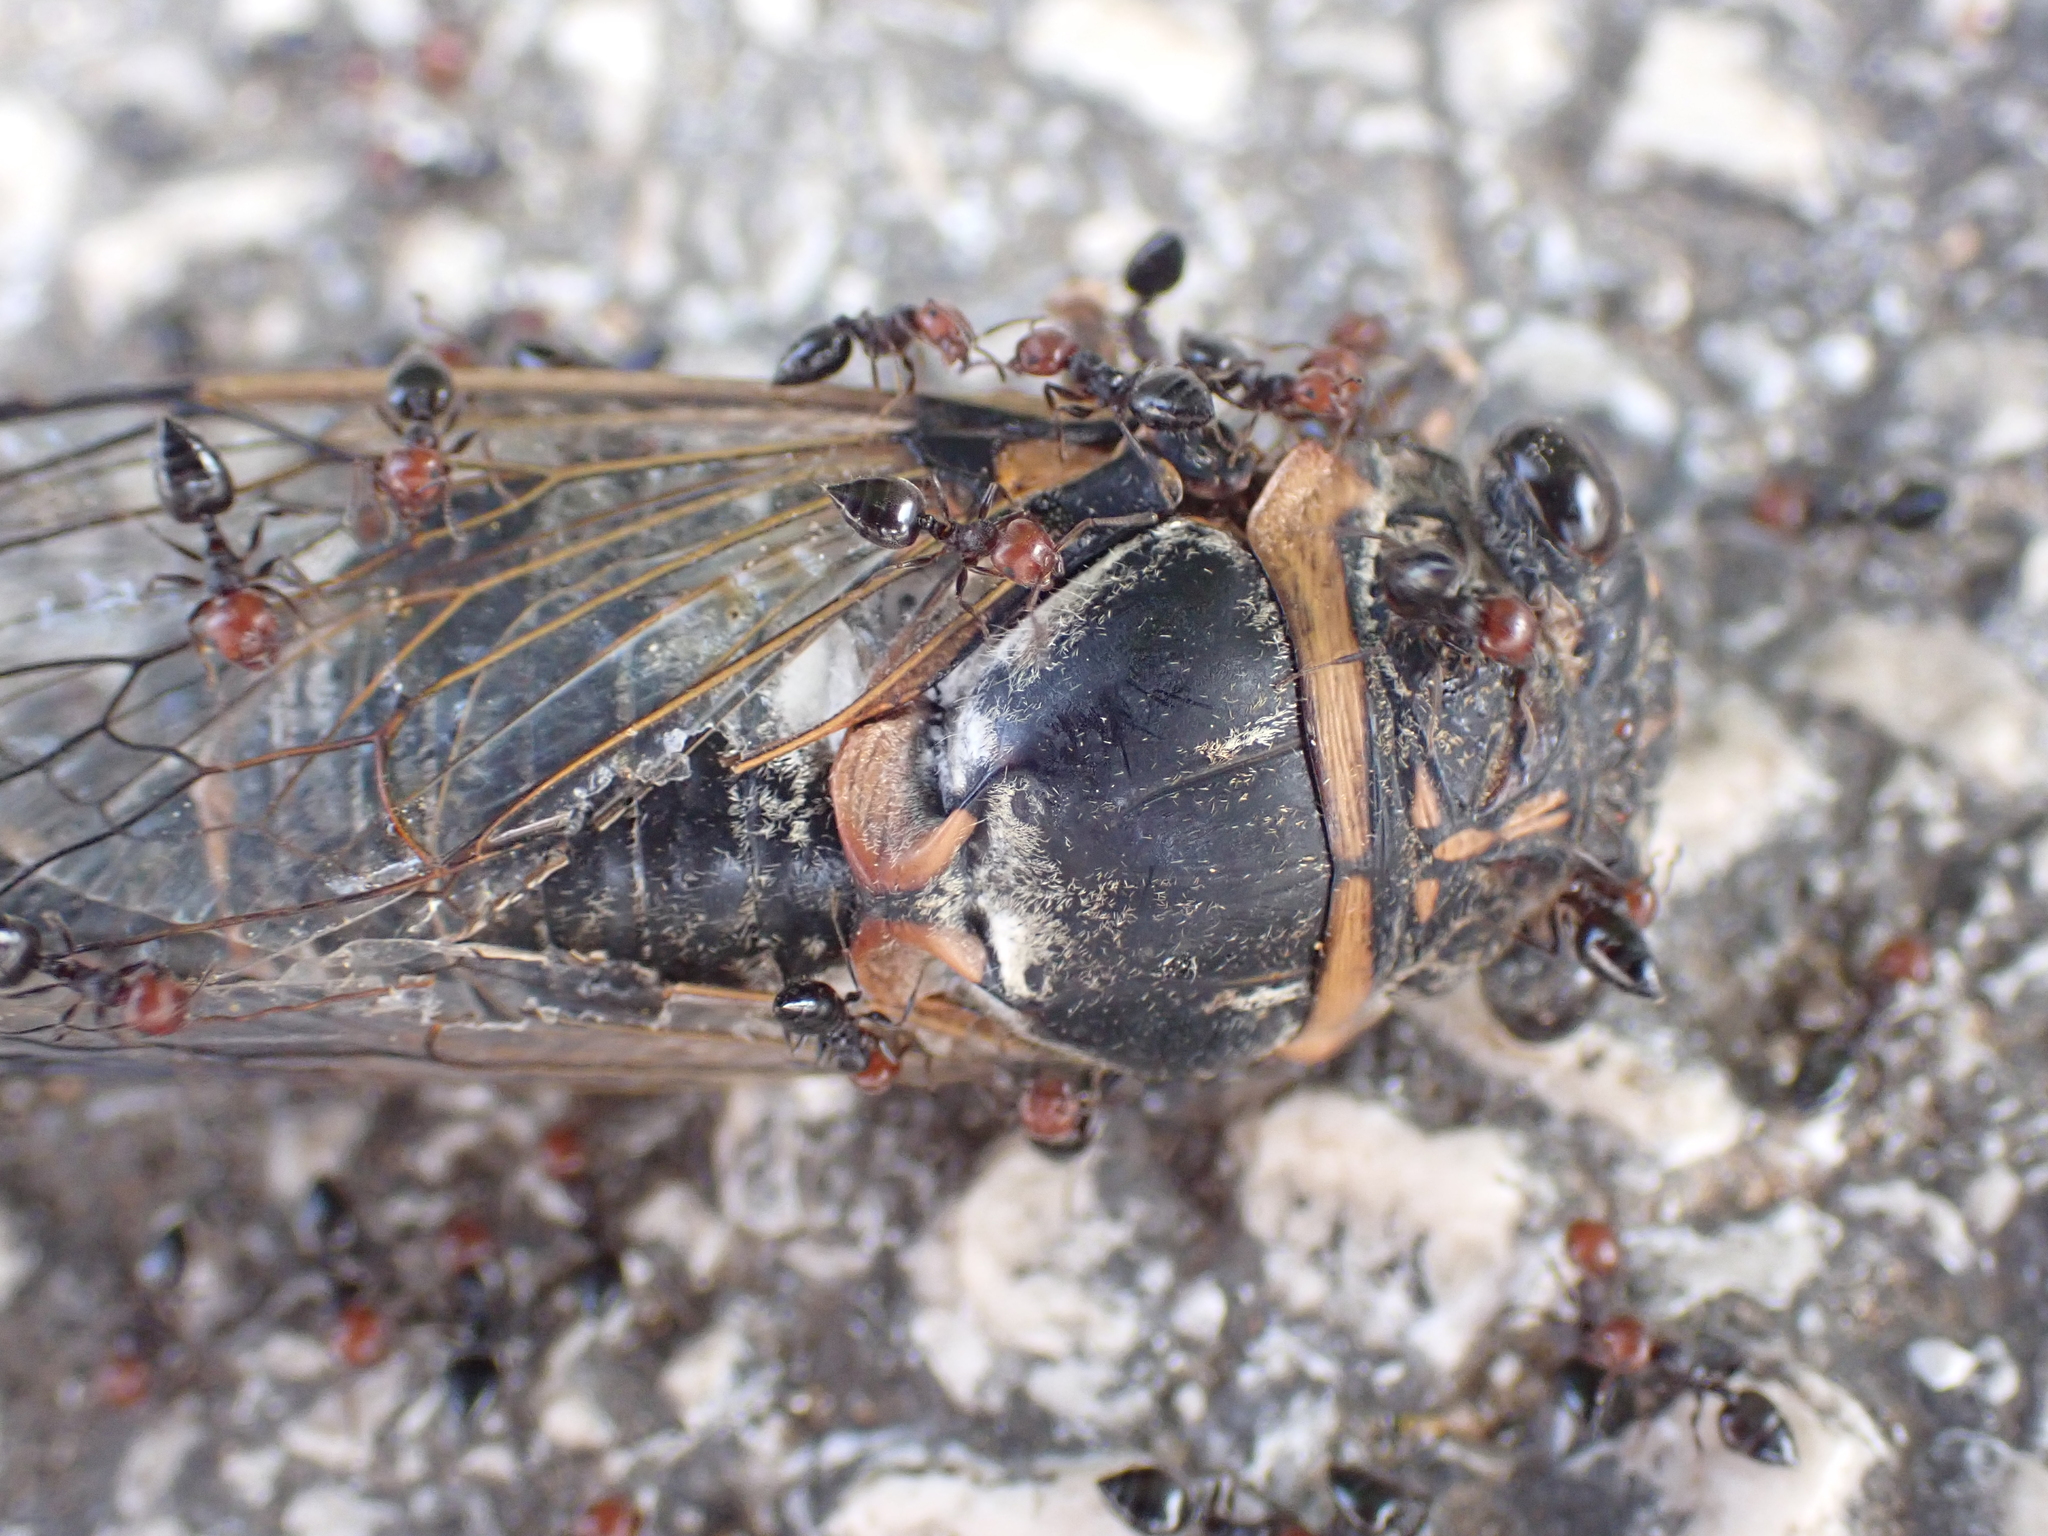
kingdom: Animalia
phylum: Arthropoda
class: Insecta
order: Hymenoptera
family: Formicidae
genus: Crematogaster
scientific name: Crematogaster scutellaris
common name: Fourmi du liège
